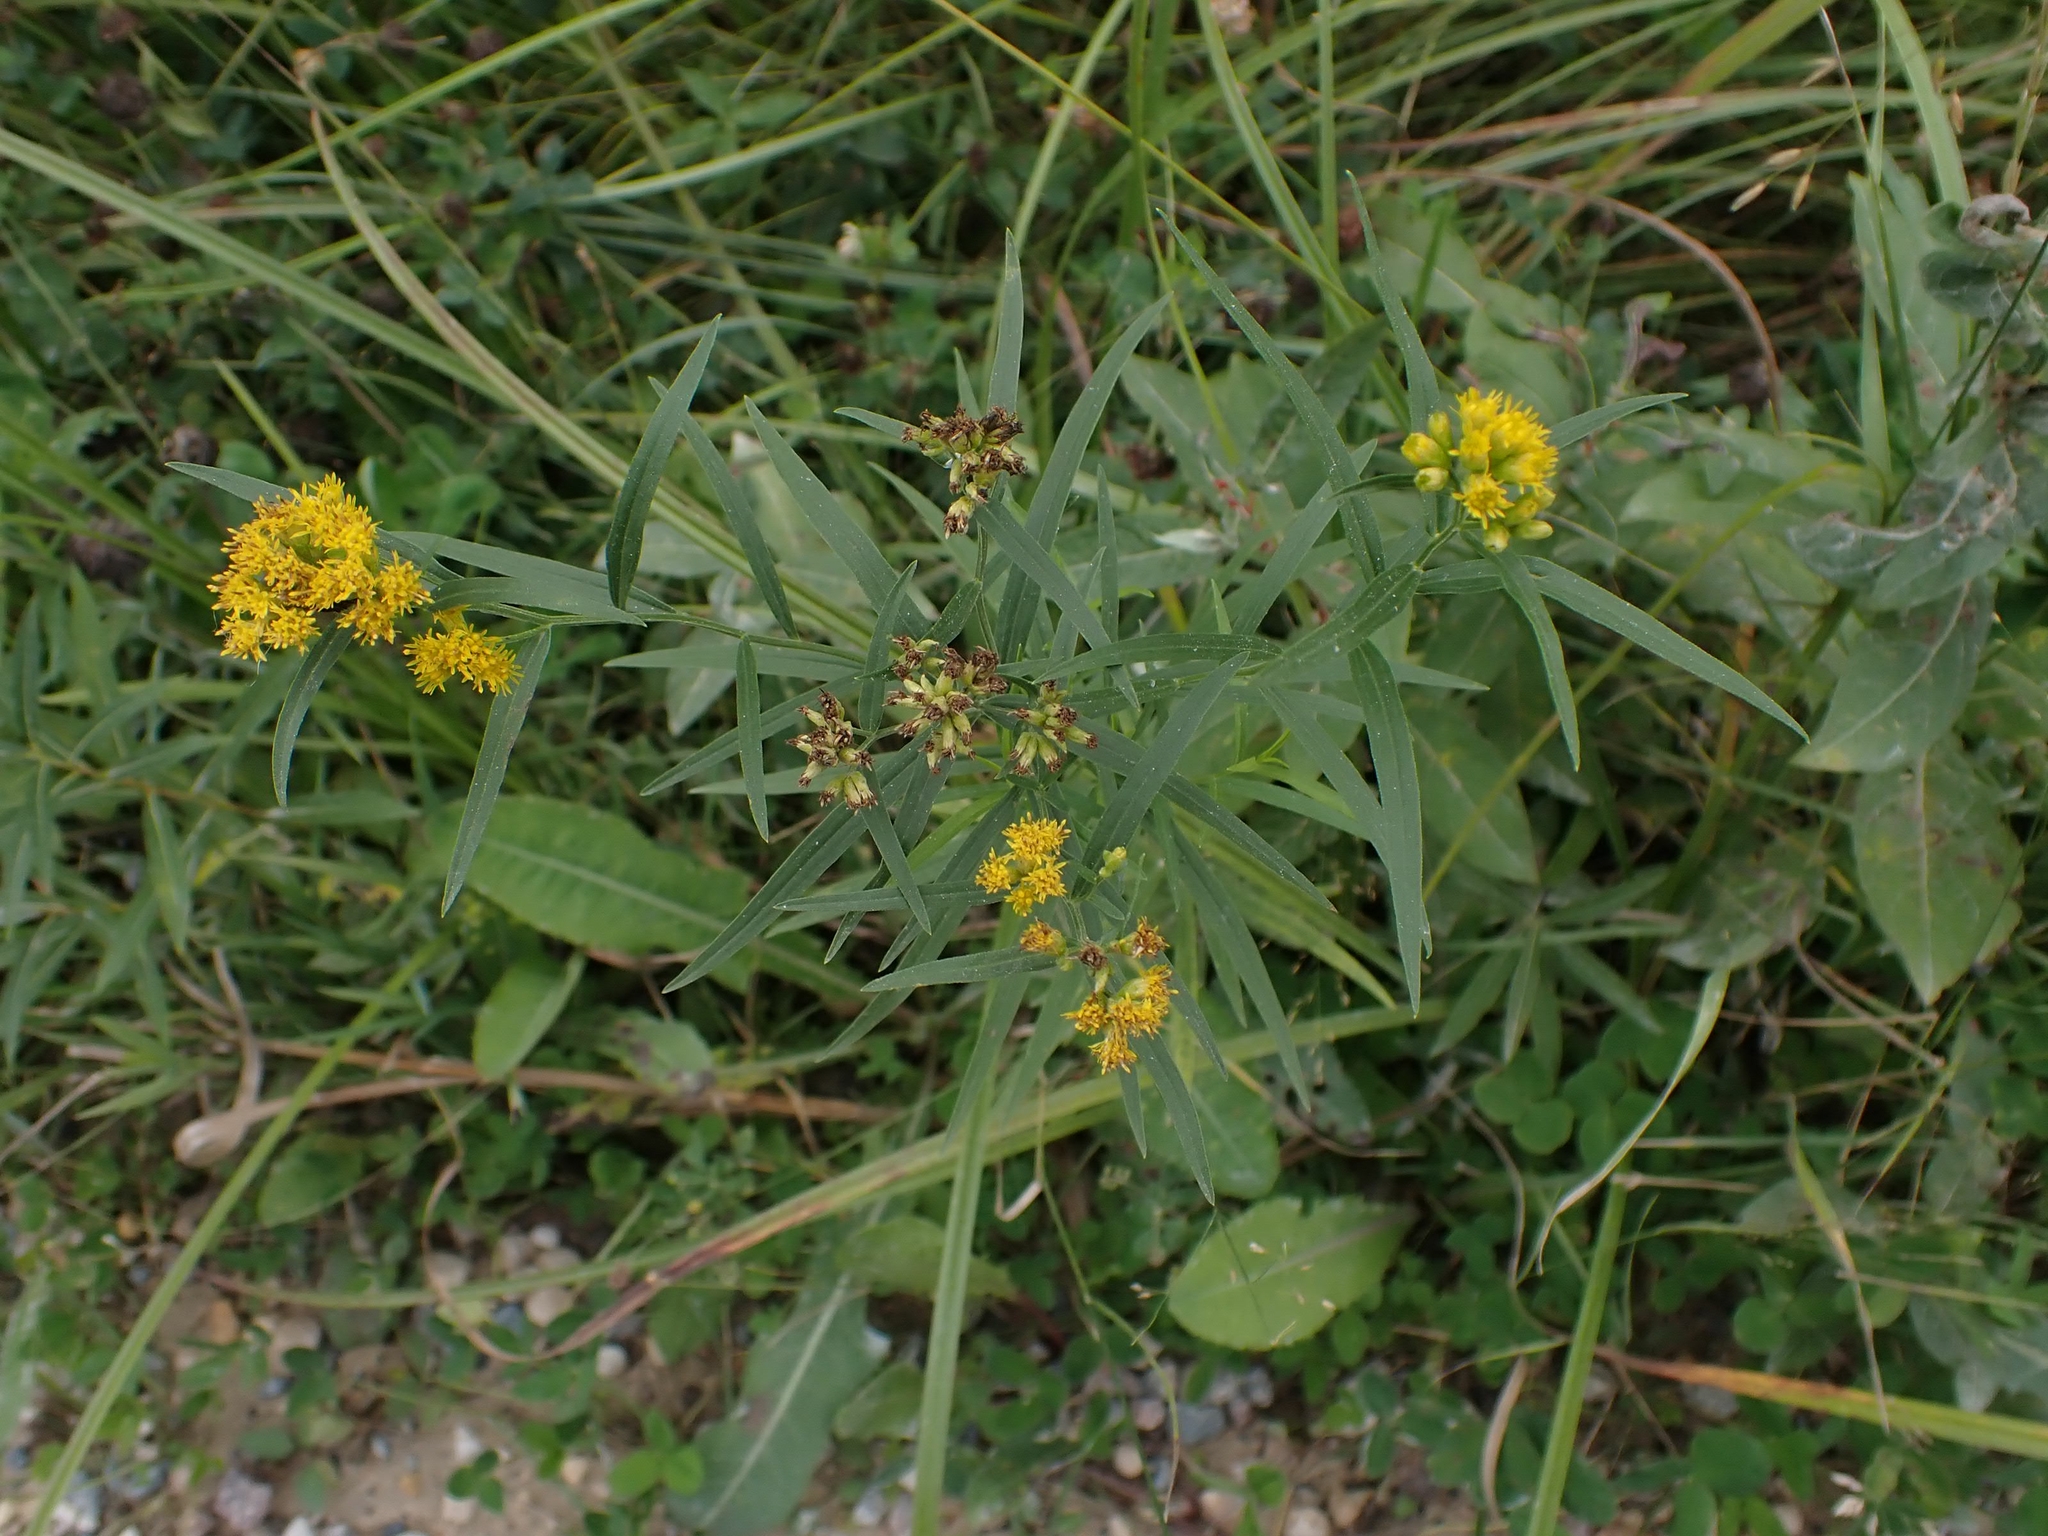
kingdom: Plantae
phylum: Tracheophyta
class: Magnoliopsida
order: Asterales
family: Asteraceae
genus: Euthamia
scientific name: Euthamia graminifolia
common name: Common goldentop
